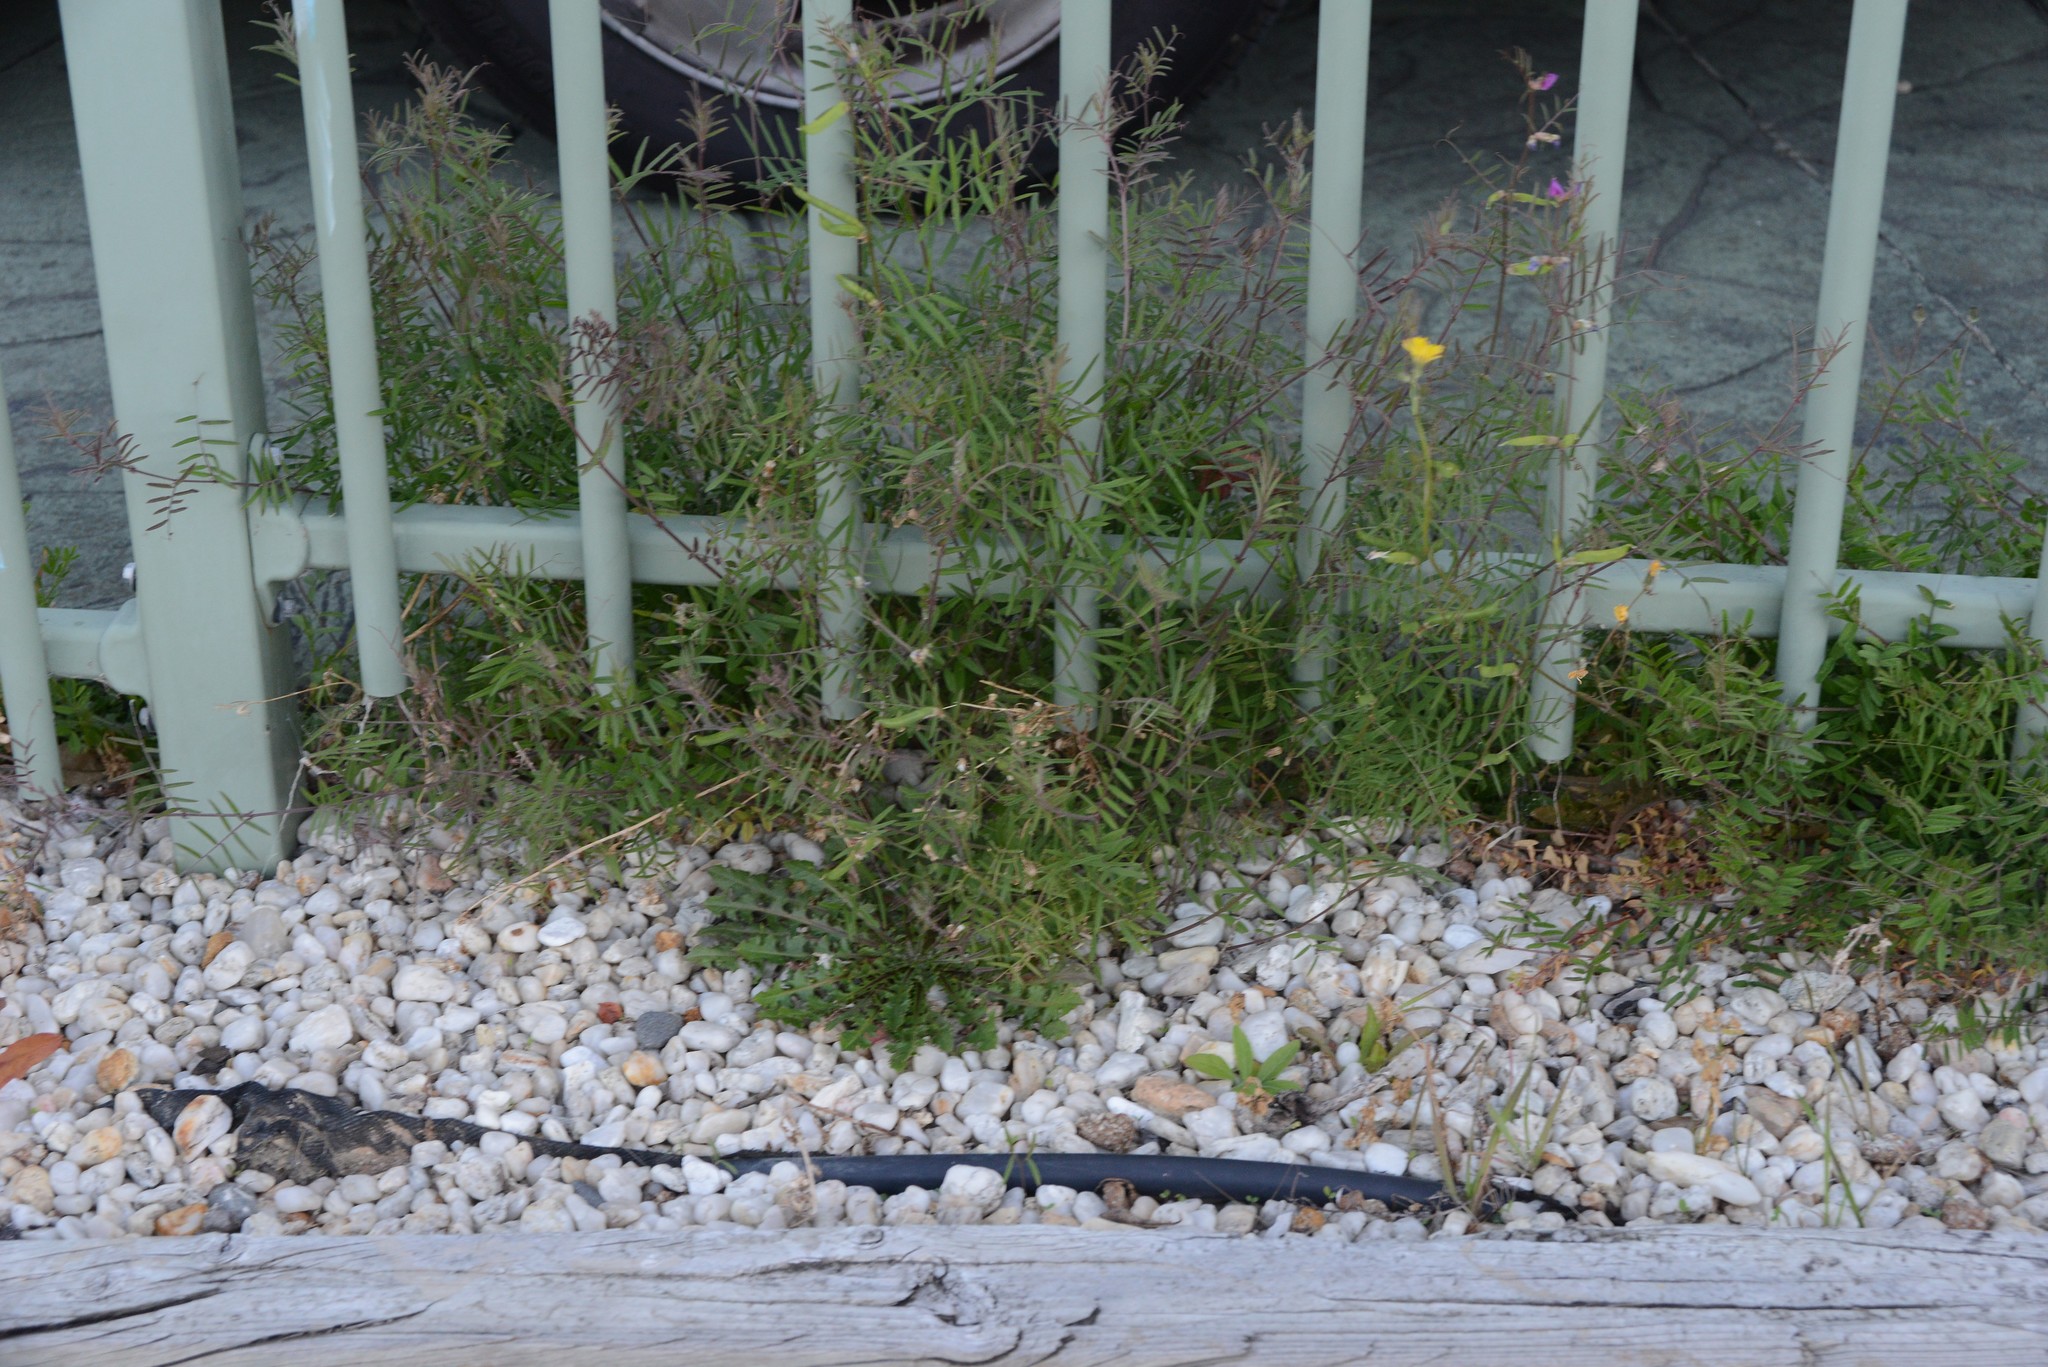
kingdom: Plantae
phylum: Tracheophyta
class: Magnoliopsida
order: Fabales
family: Fabaceae
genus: Vicia
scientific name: Vicia sativa
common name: Garden vetch
